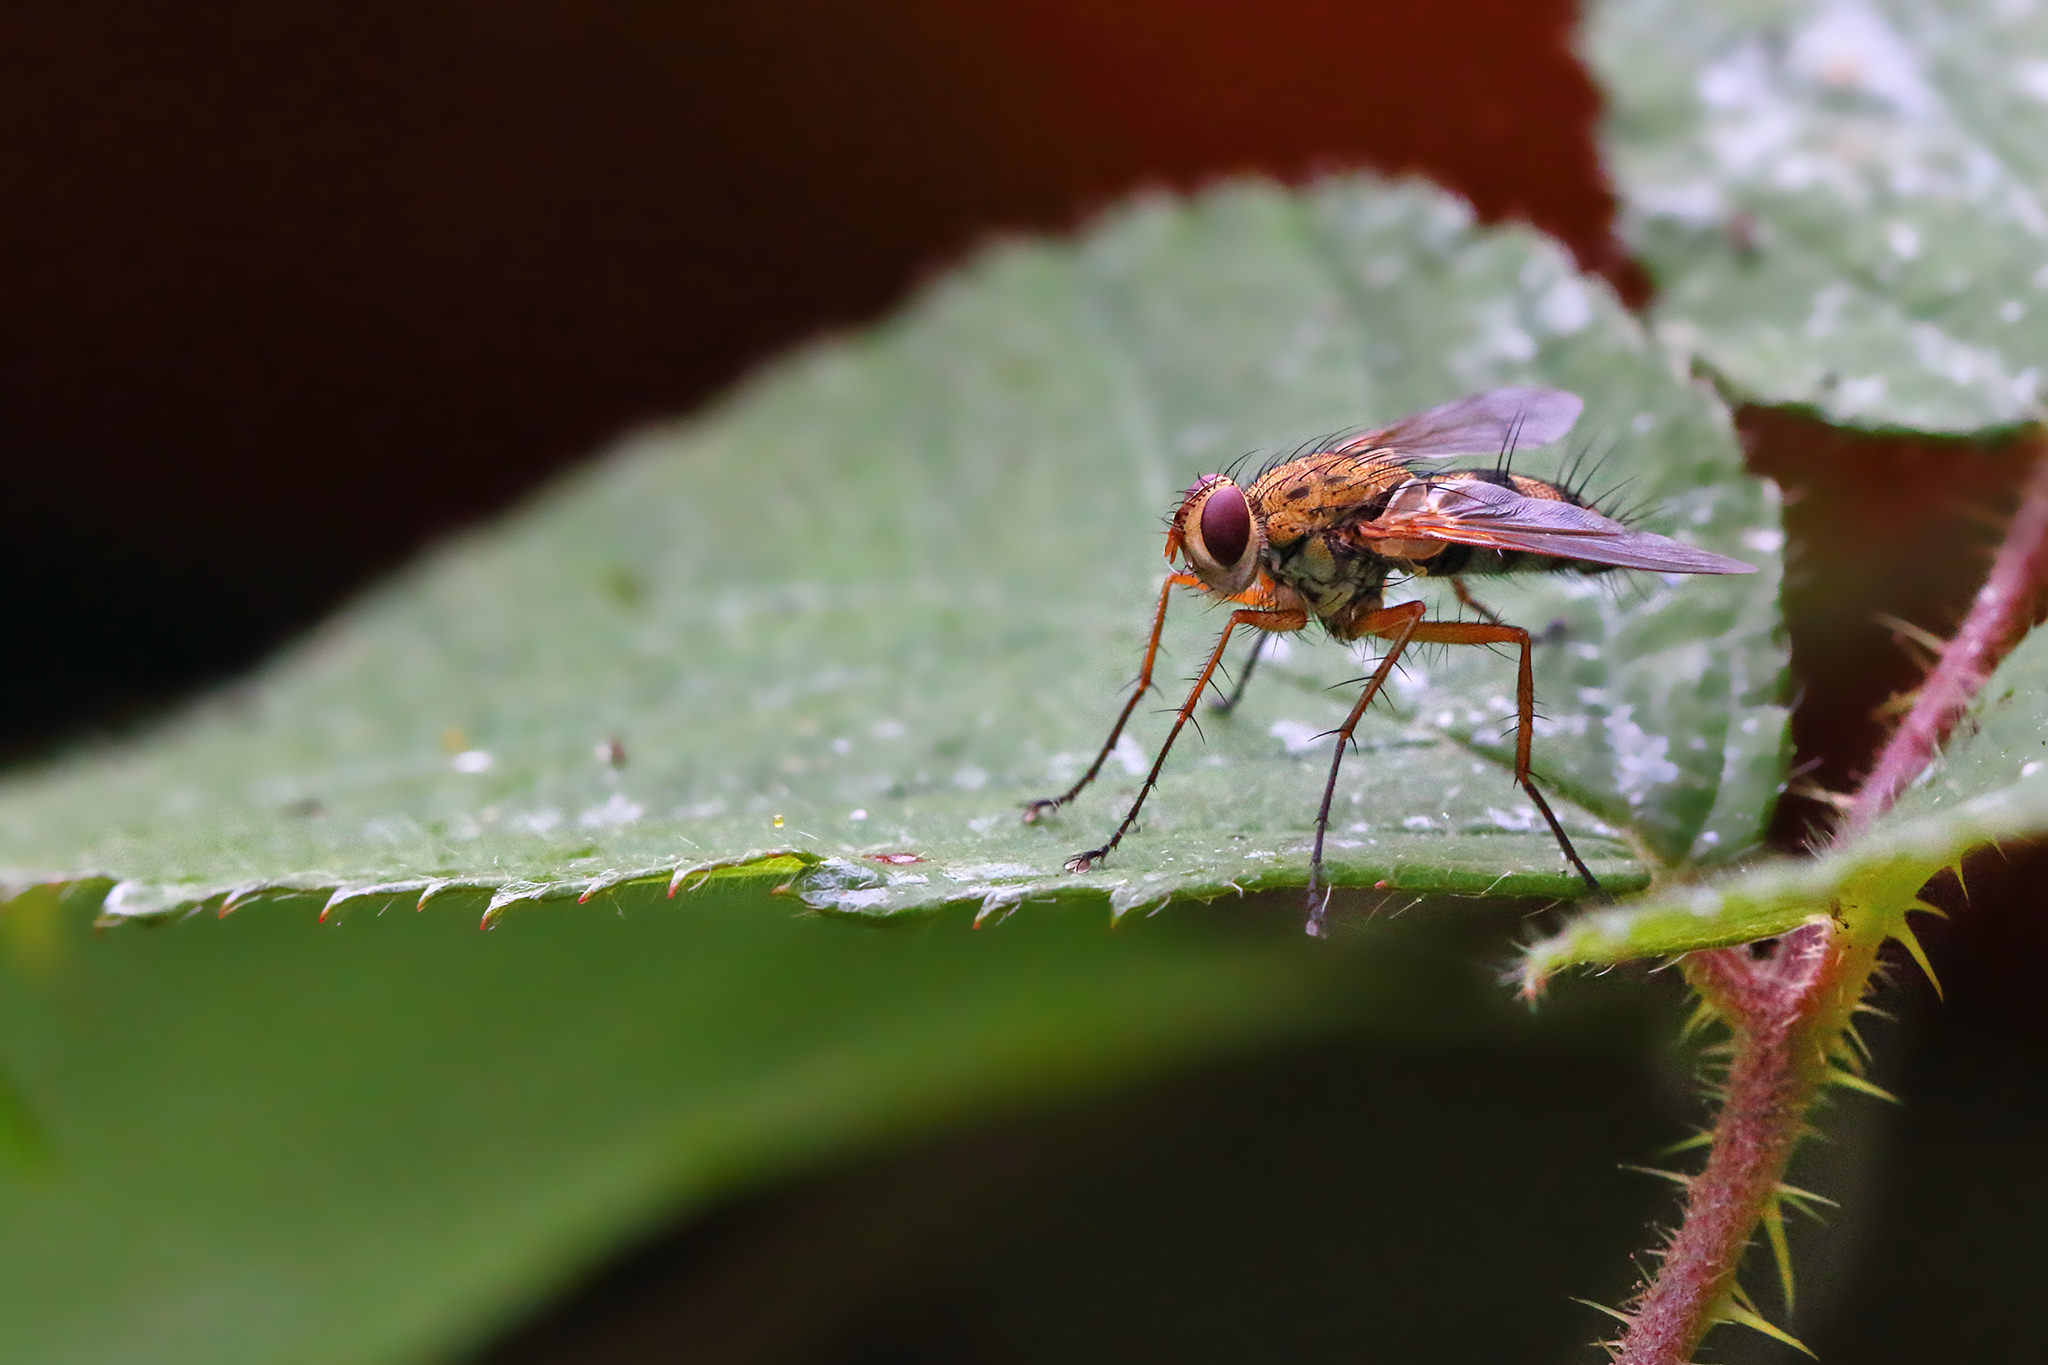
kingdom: Animalia
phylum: Arthropoda
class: Insecta
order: Diptera
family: Tachinidae
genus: Dexiosoma
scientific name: Dexiosoma caninum
